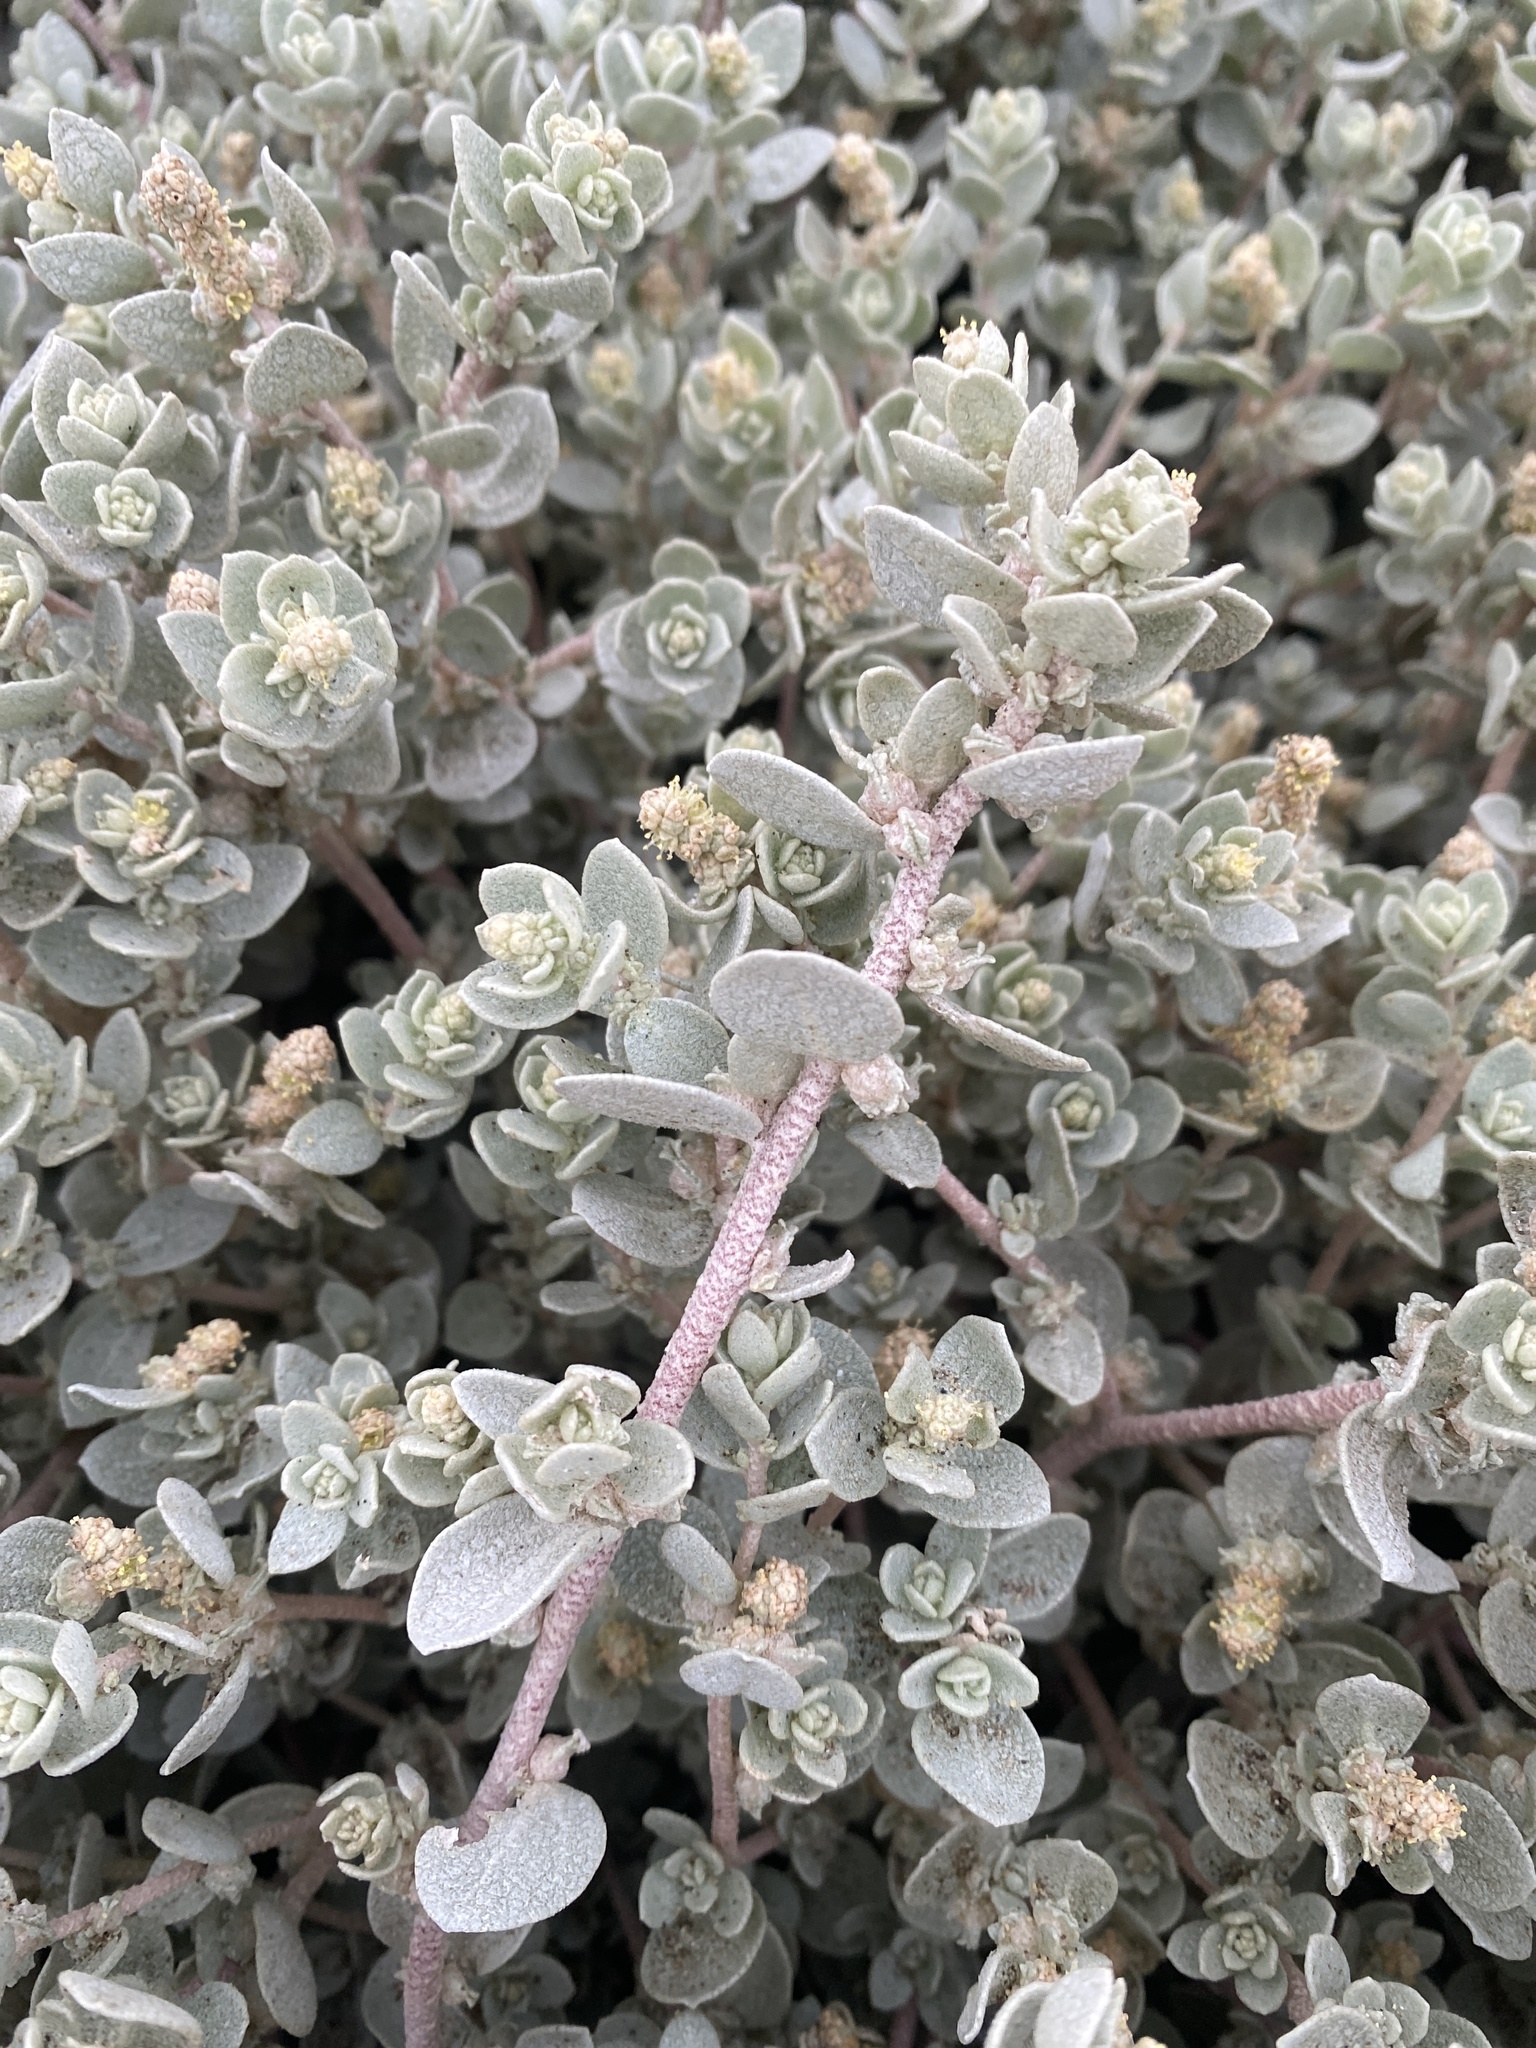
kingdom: Plantae
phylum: Tracheophyta
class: Magnoliopsida
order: Caryophyllales
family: Amaranthaceae
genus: Atriplex
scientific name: Atriplex leucophylla
